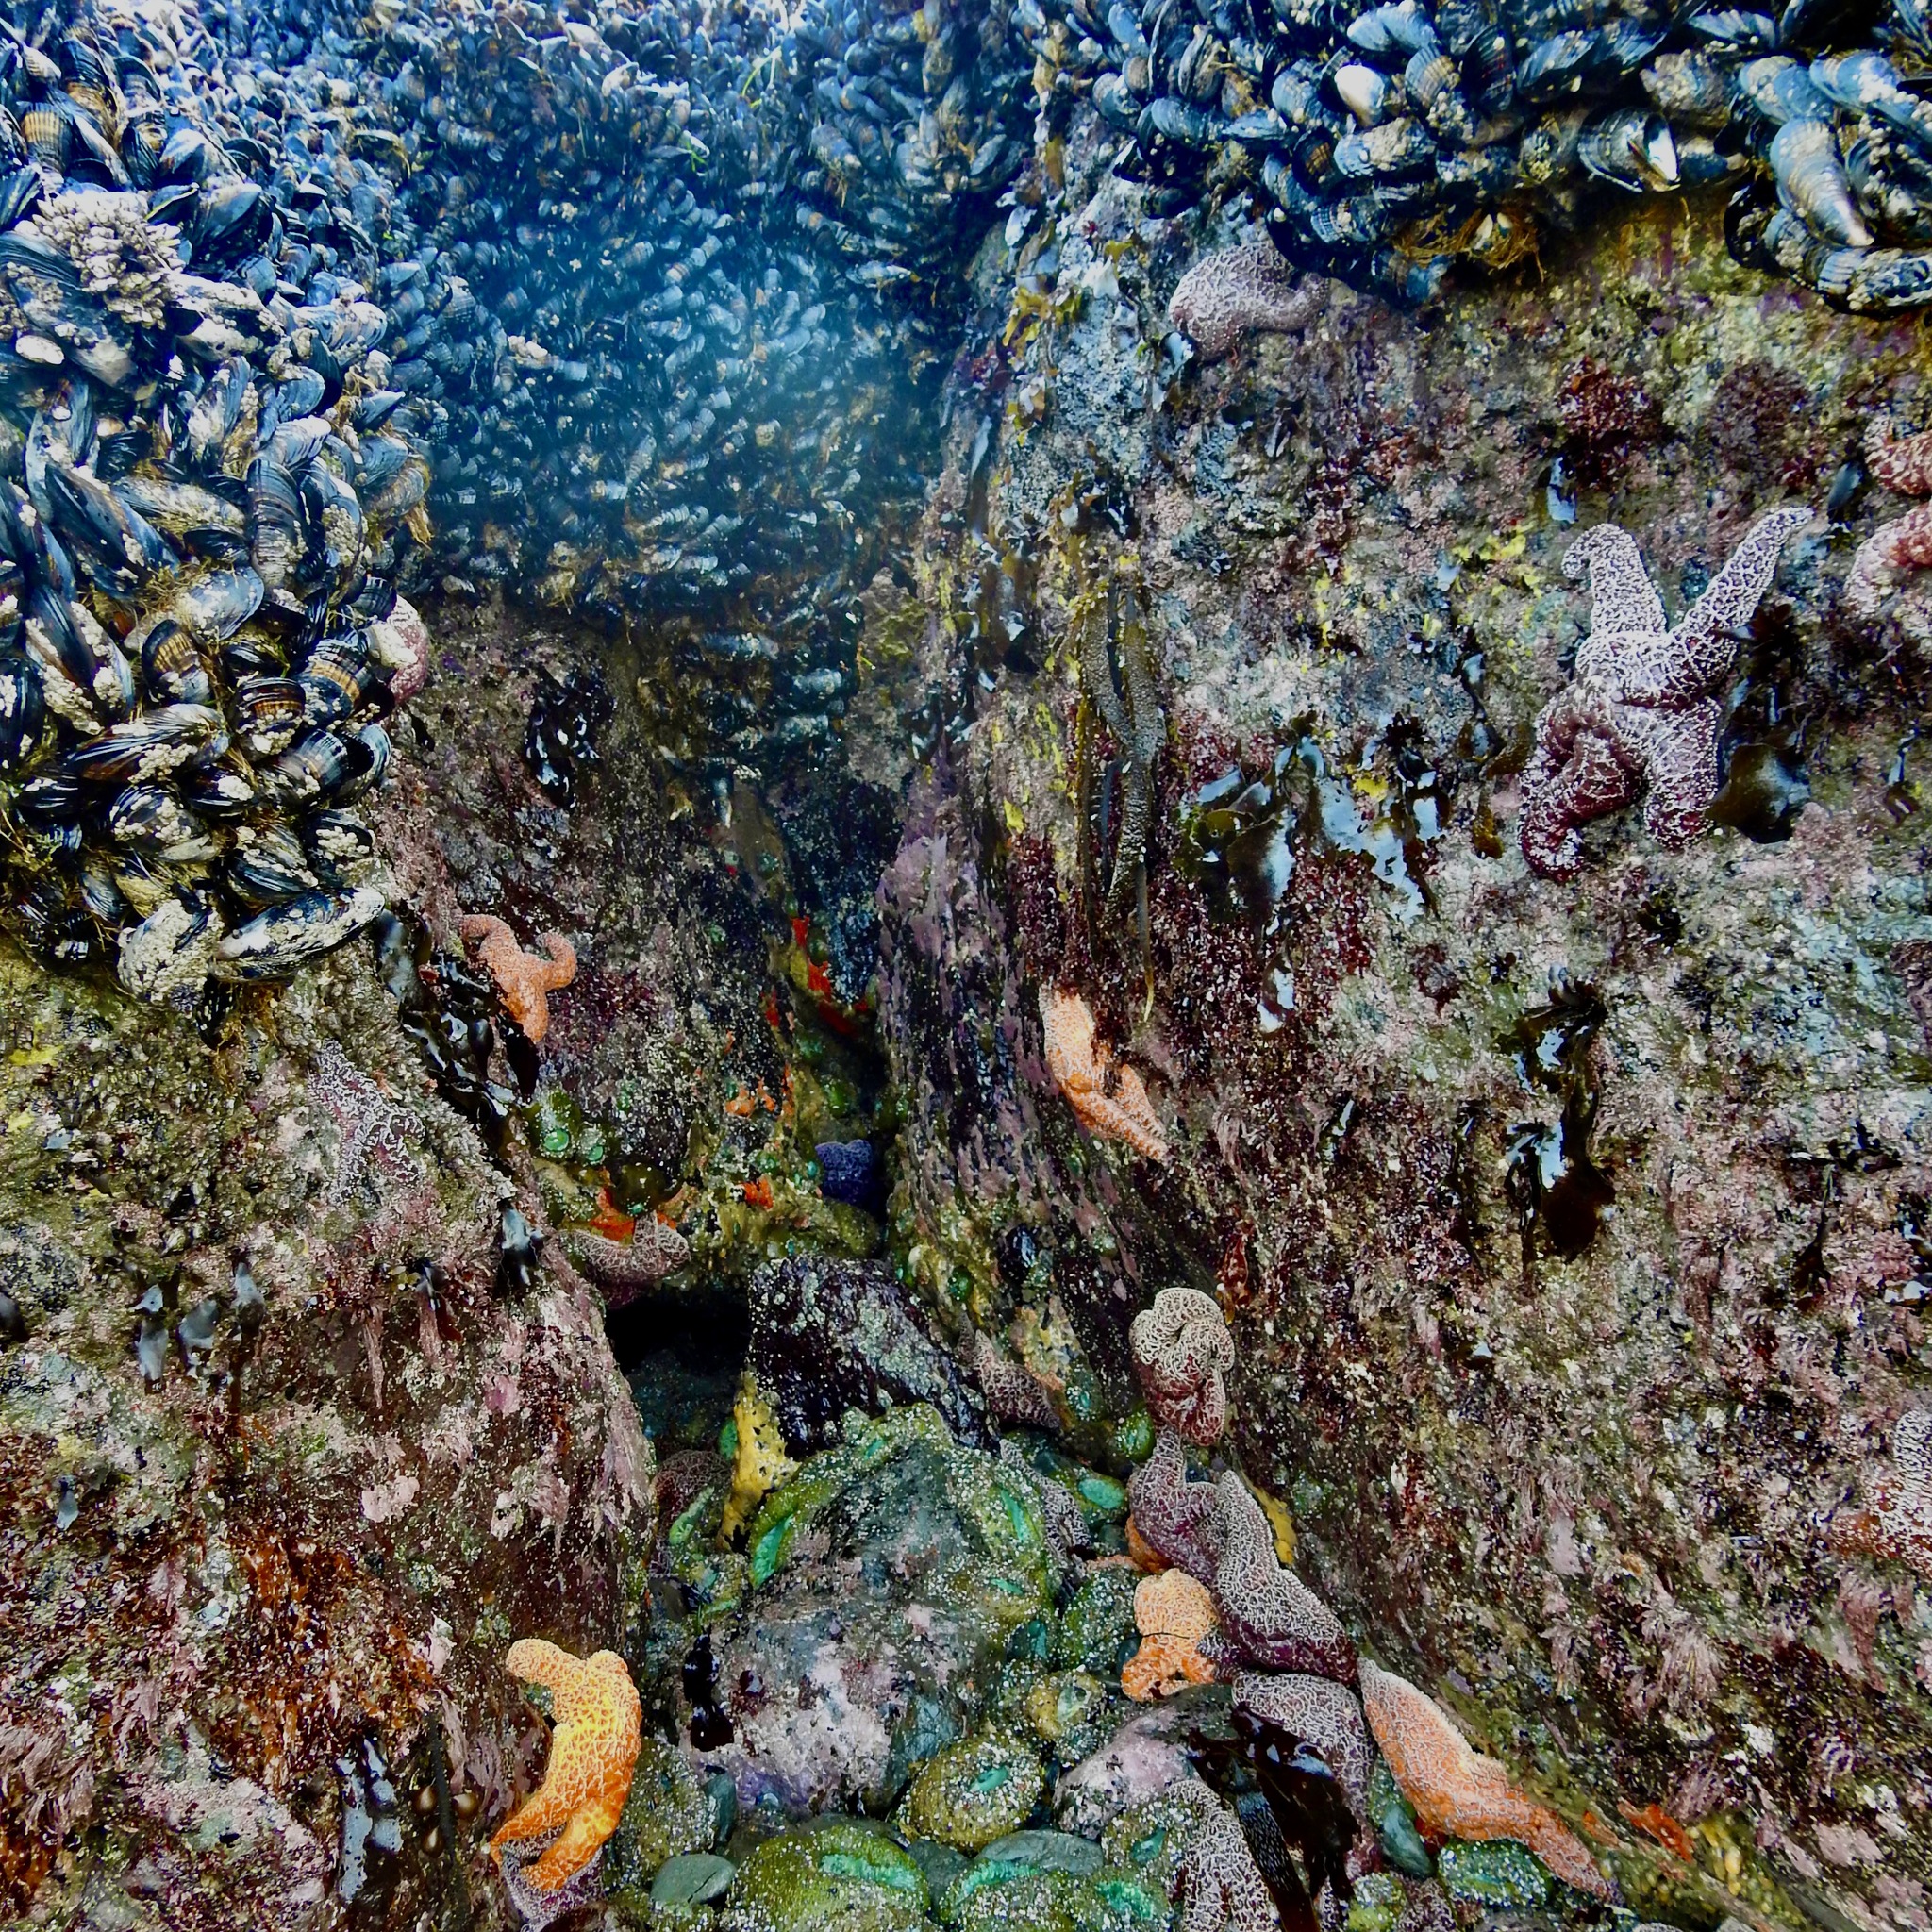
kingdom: Animalia
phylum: Echinodermata
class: Asteroidea
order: Forcipulatida
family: Asteriidae
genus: Pisaster
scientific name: Pisaster ochraceus
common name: Ochre stars
